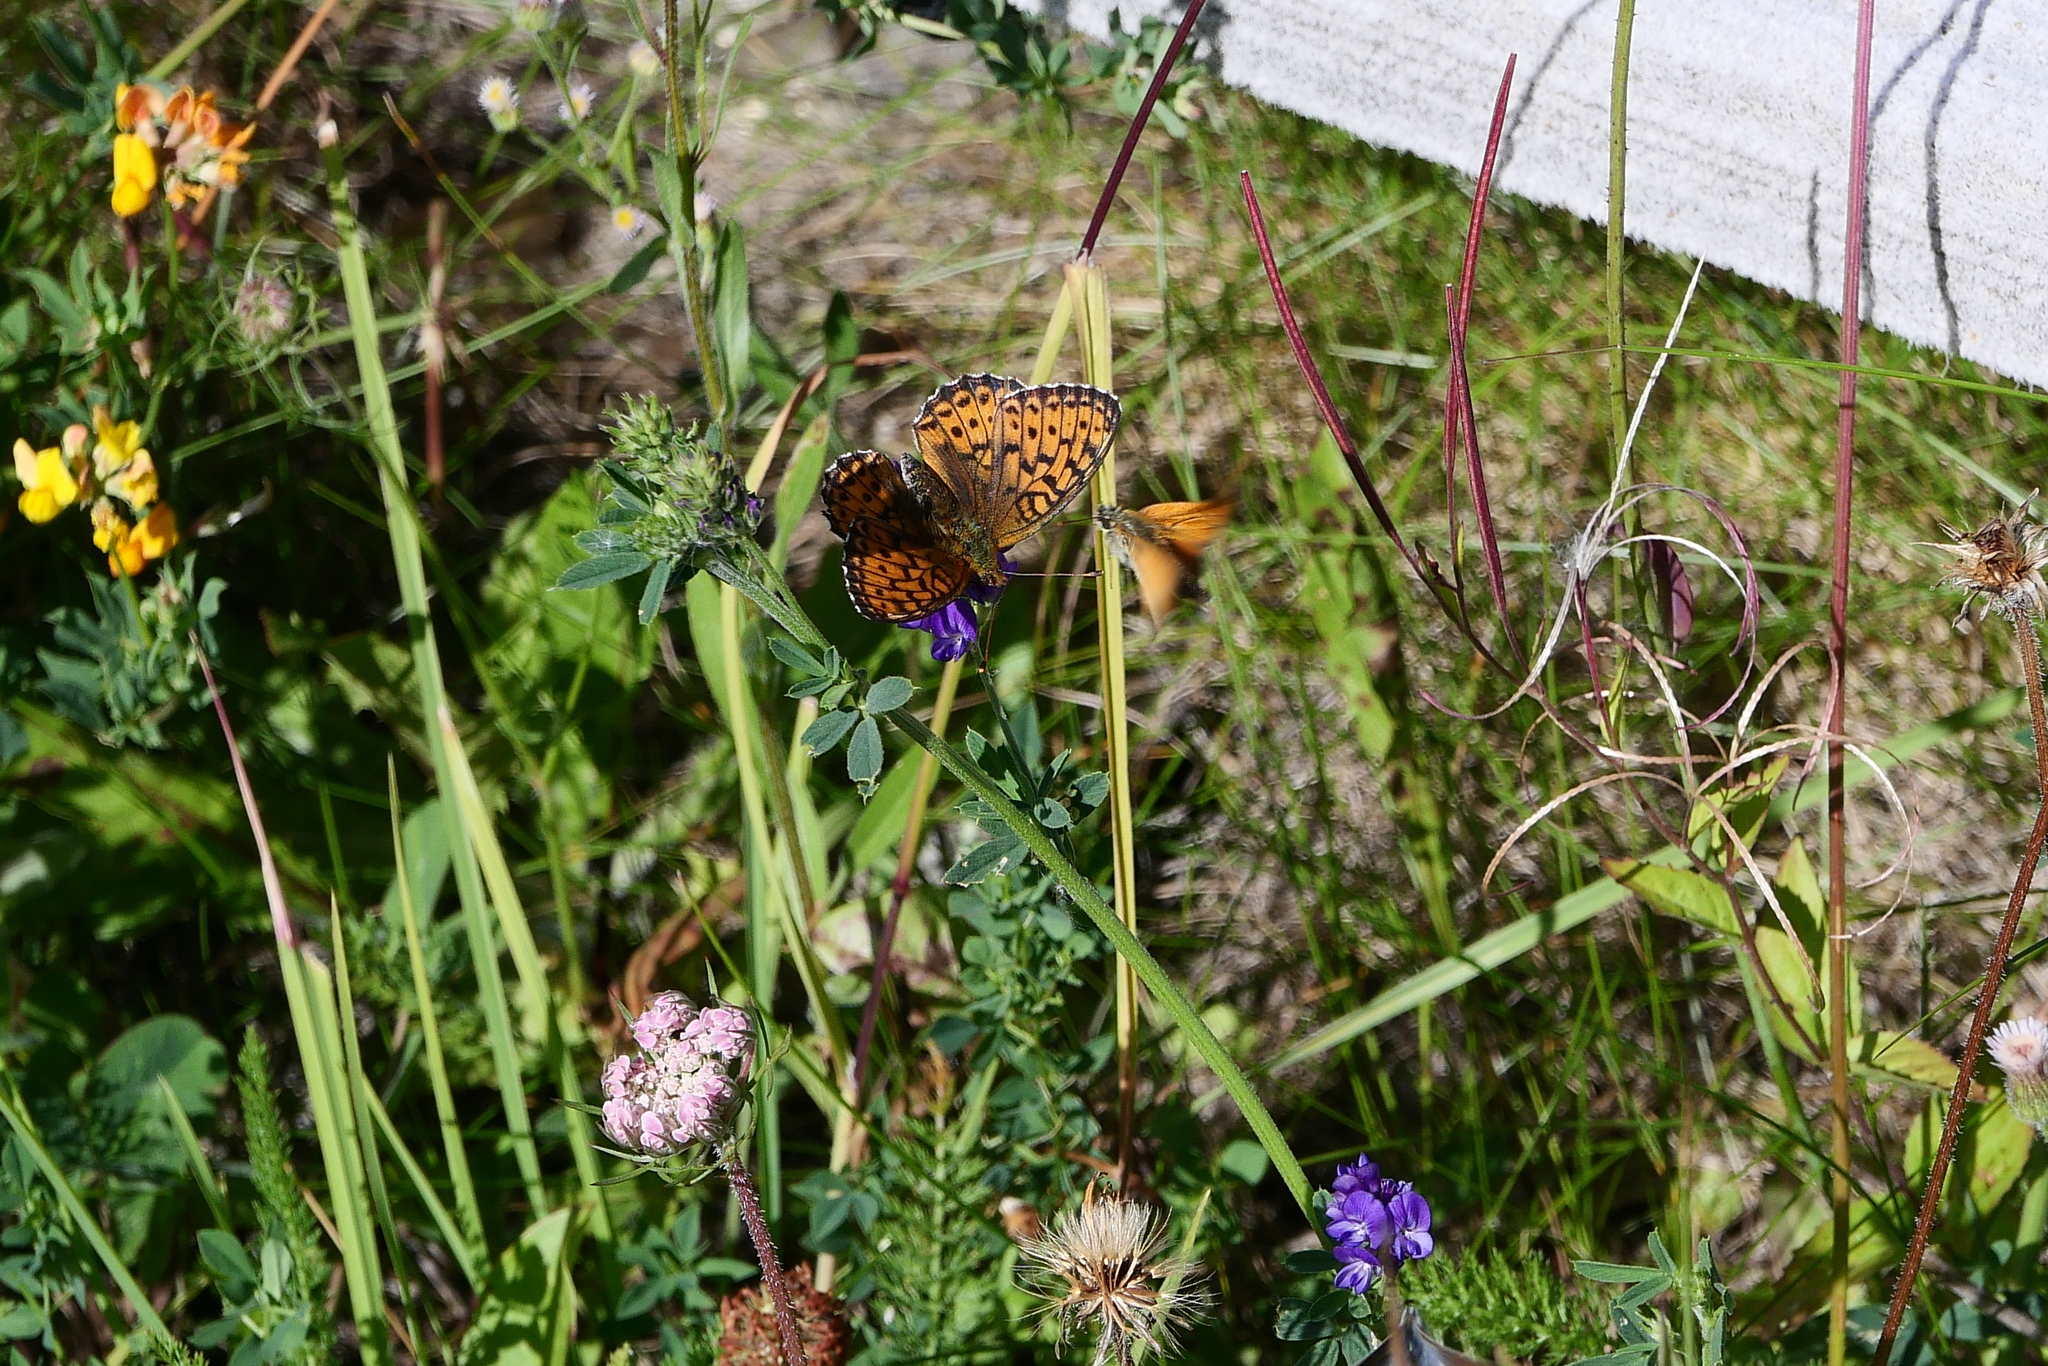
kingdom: Animalia
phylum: Arthropoda
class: Insecta
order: Lepidoptera
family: Nymphalidae
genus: Brenthis
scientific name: Brenthis ino
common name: Lesser marbled fritillary
